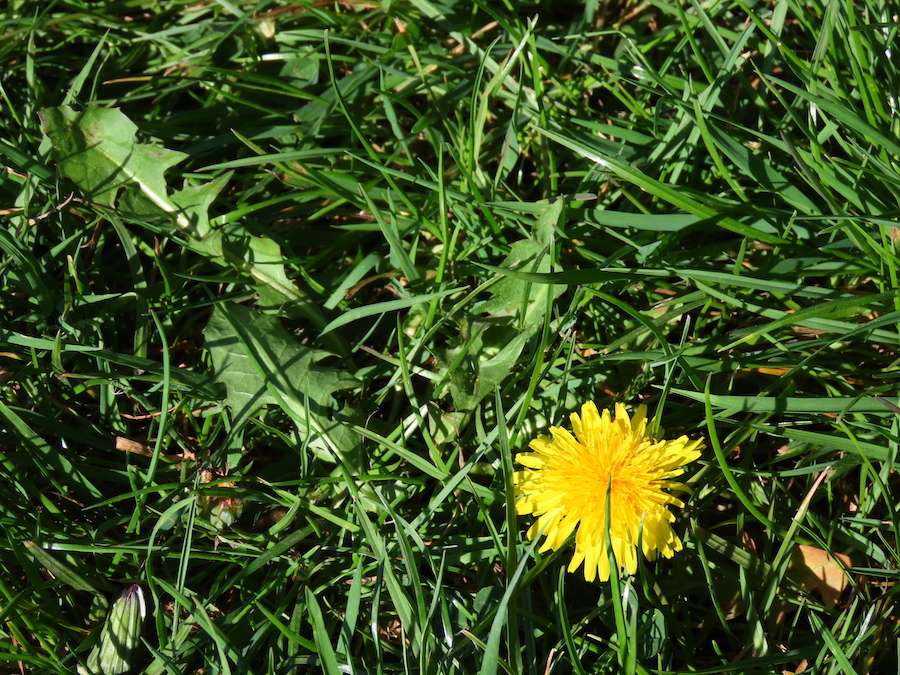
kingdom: Plantae
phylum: Tracheophyta
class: Magnoliopsida
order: Asterales
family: Asteraceae
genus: Taraxacum
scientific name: Taraxacum officinale
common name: Common dandelion
